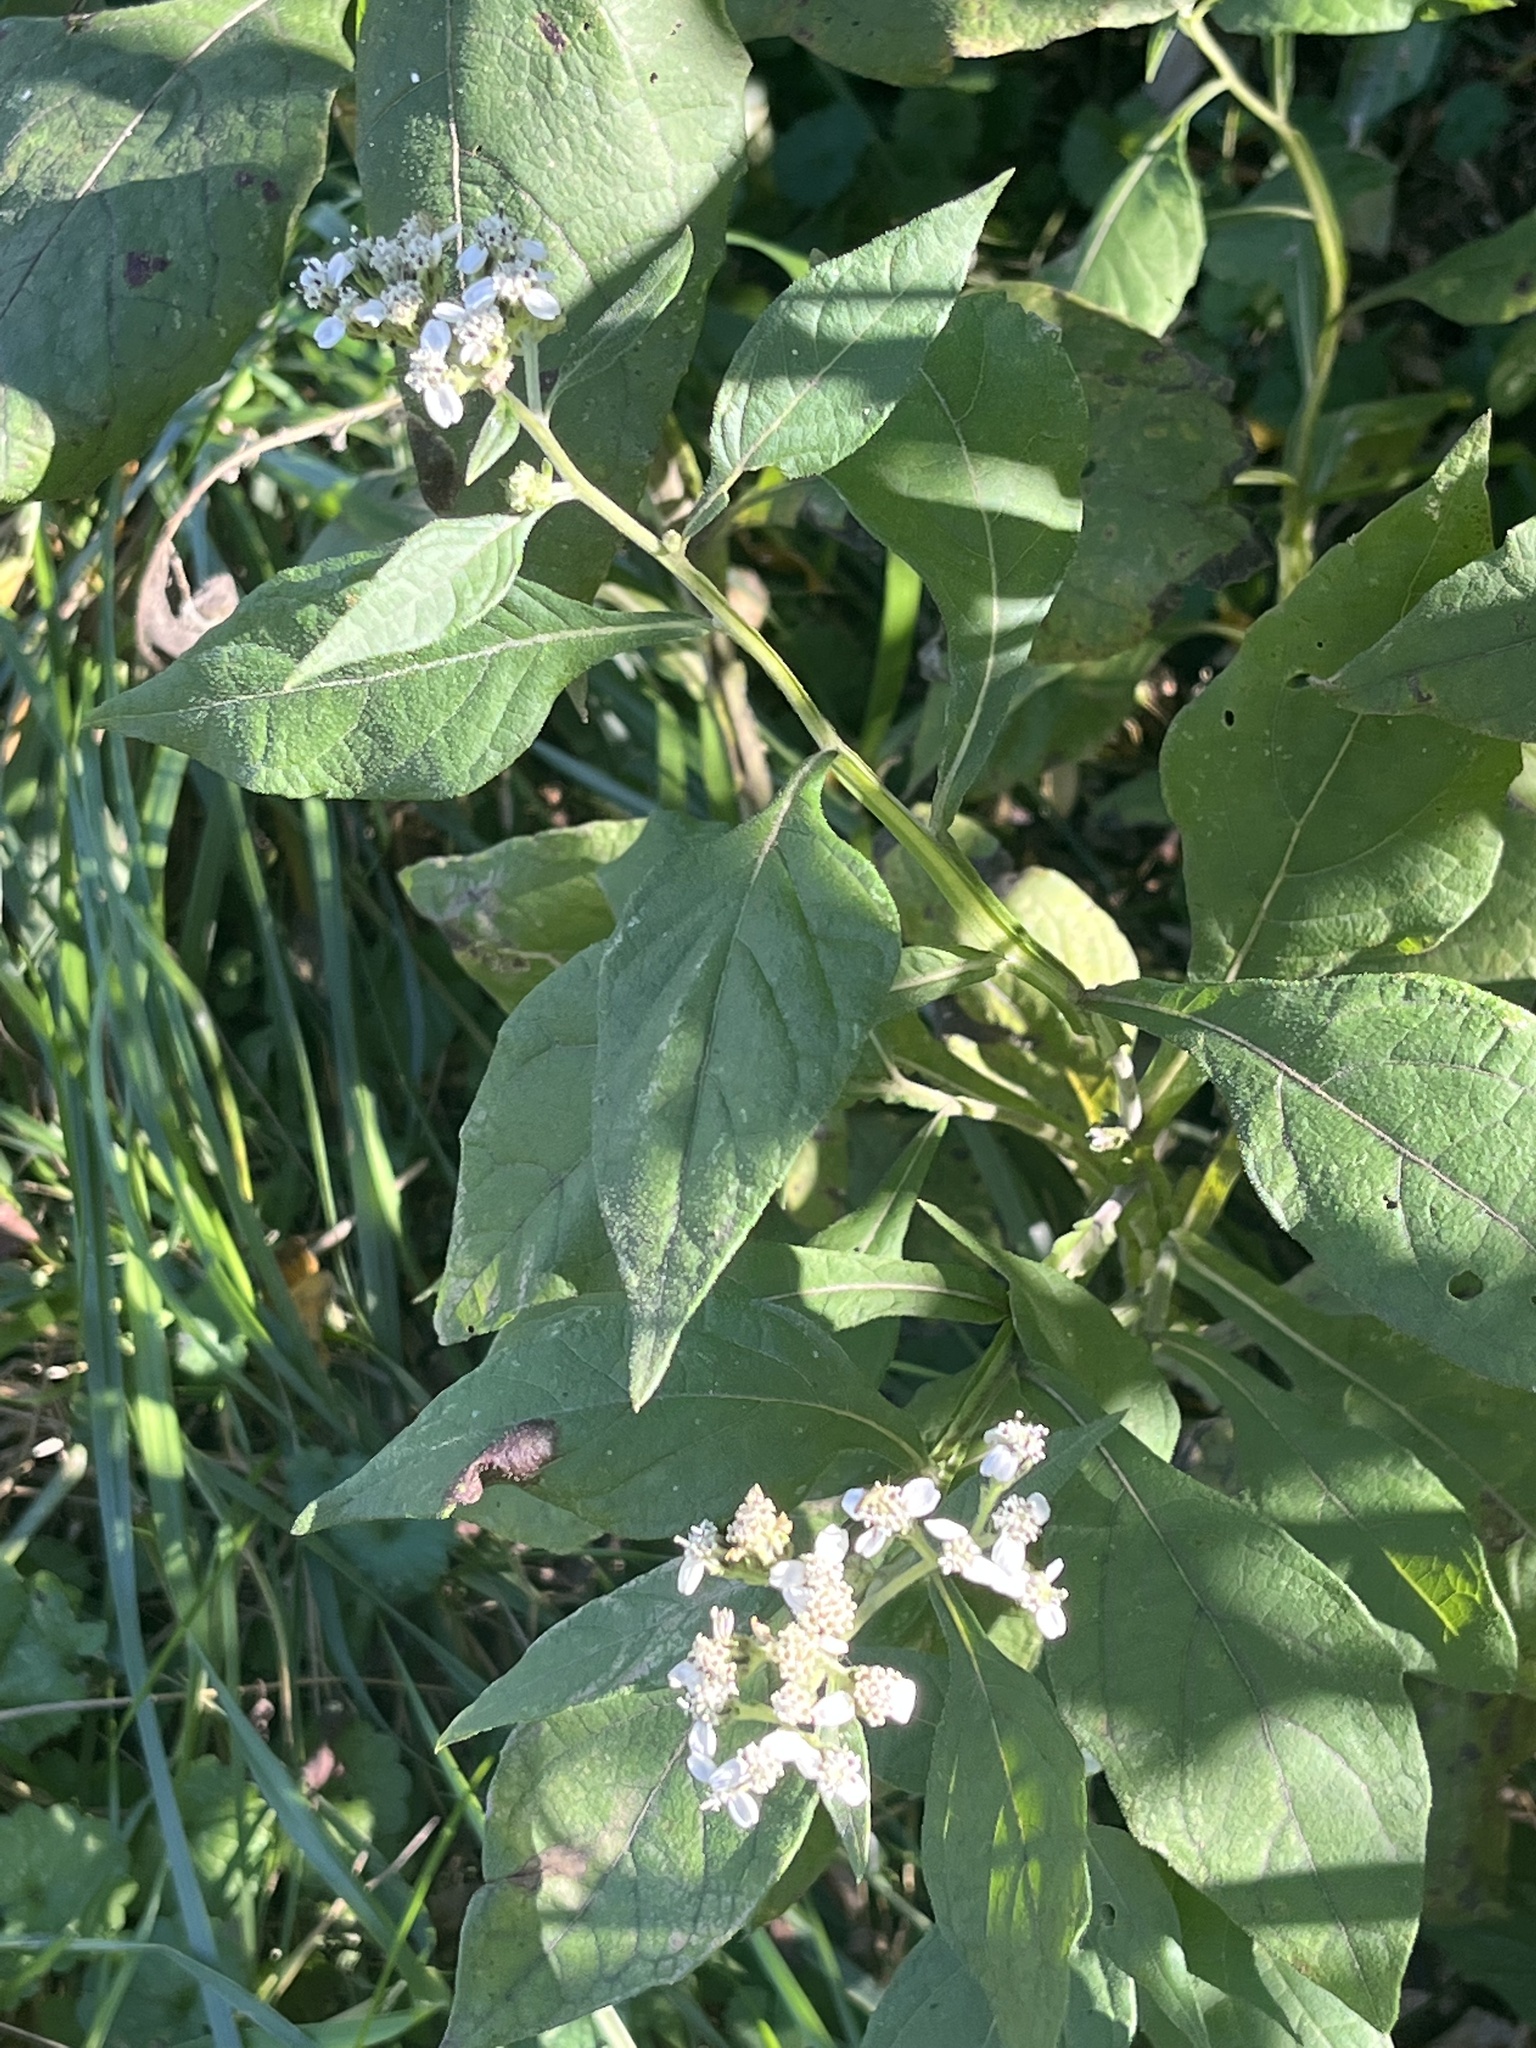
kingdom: Plantae
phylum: Tracheophyta
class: Magnoliopsida
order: Asterales
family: Asteraceae
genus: Verbesina
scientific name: Verbesina virginica
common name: Frostweed
